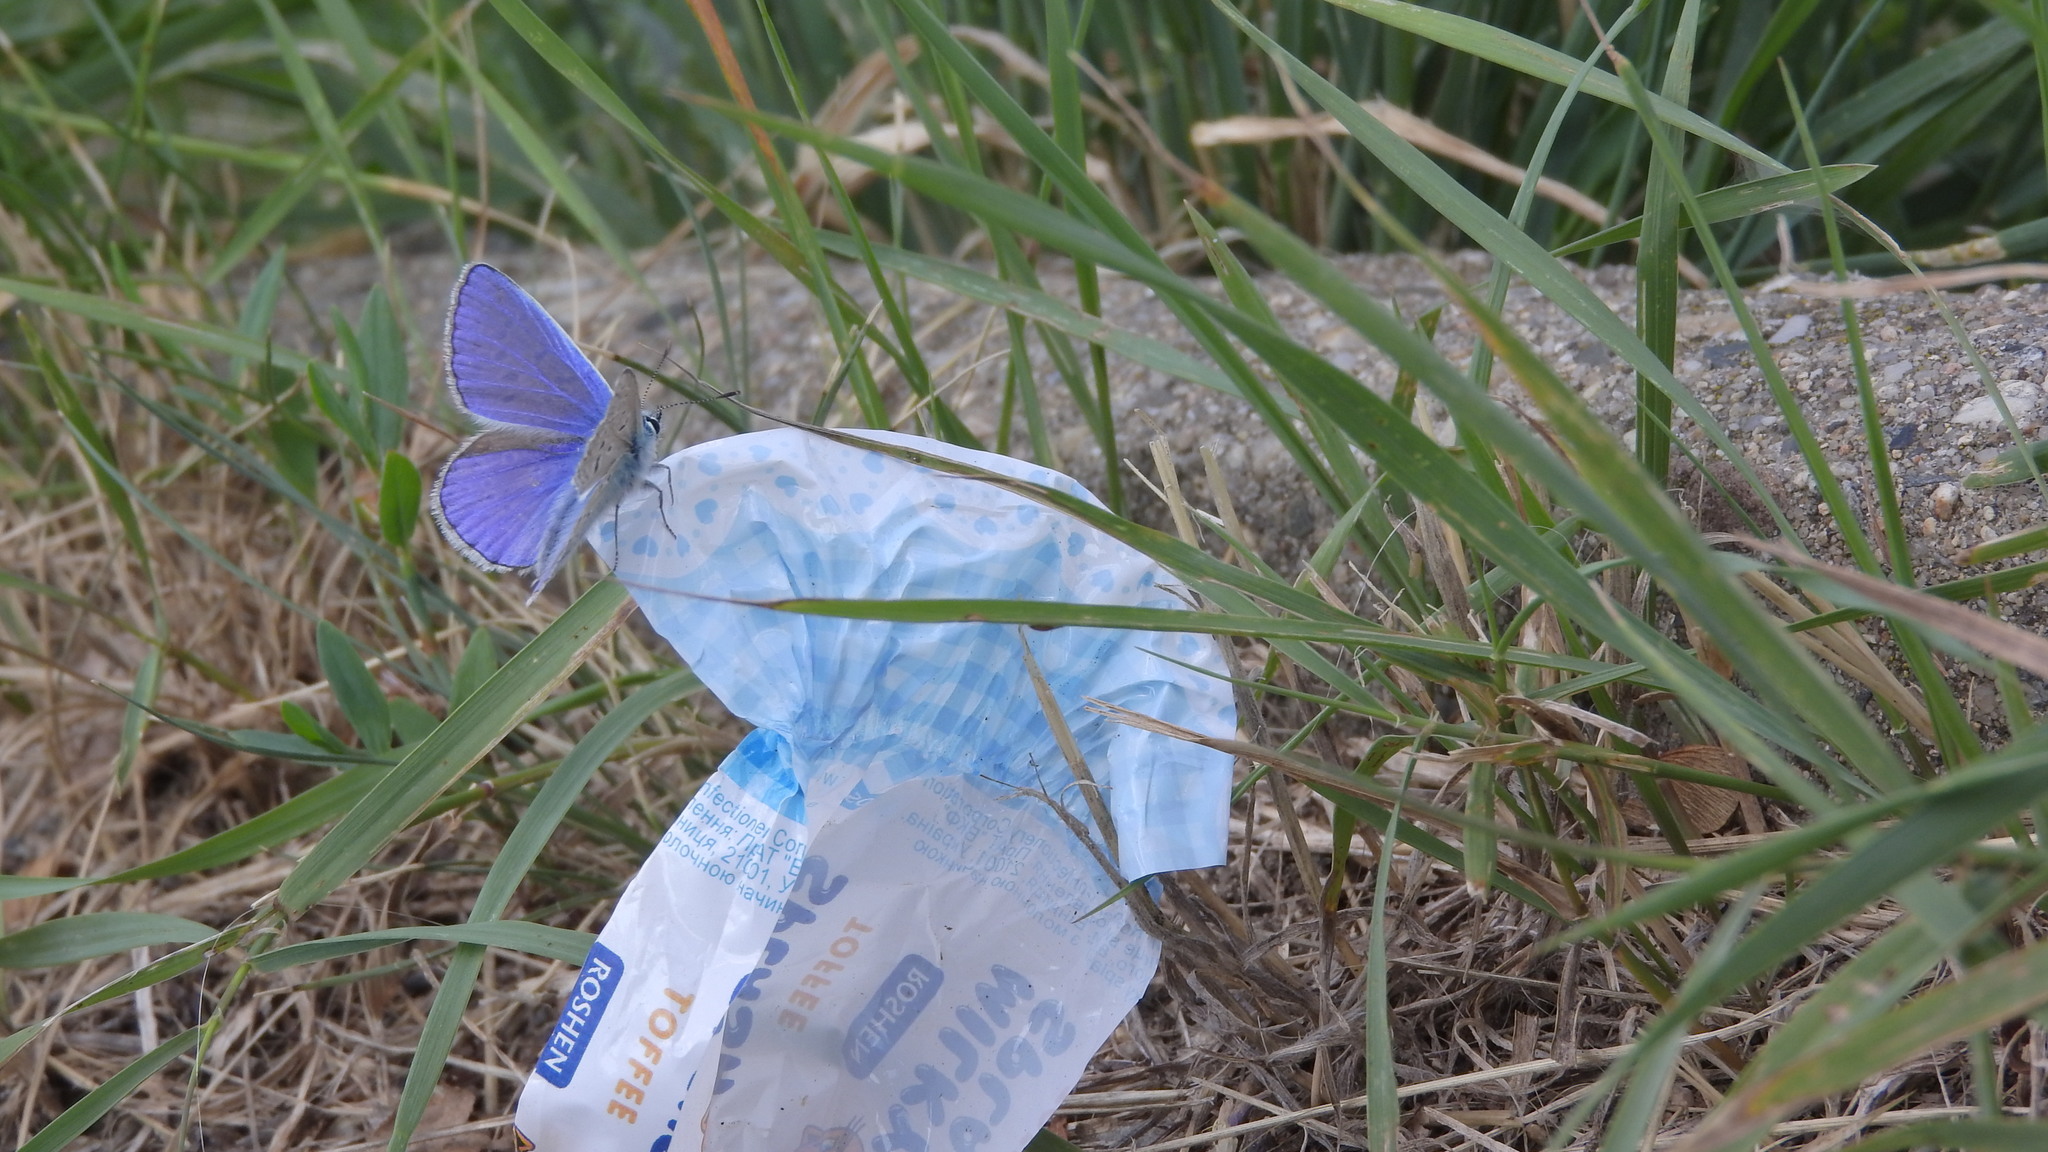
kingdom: Animalia
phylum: Arthropoda
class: Insecta
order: Lepidoptera
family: Lycaenidae
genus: Polyommatus
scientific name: Polyommatus icarus
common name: Common blue
